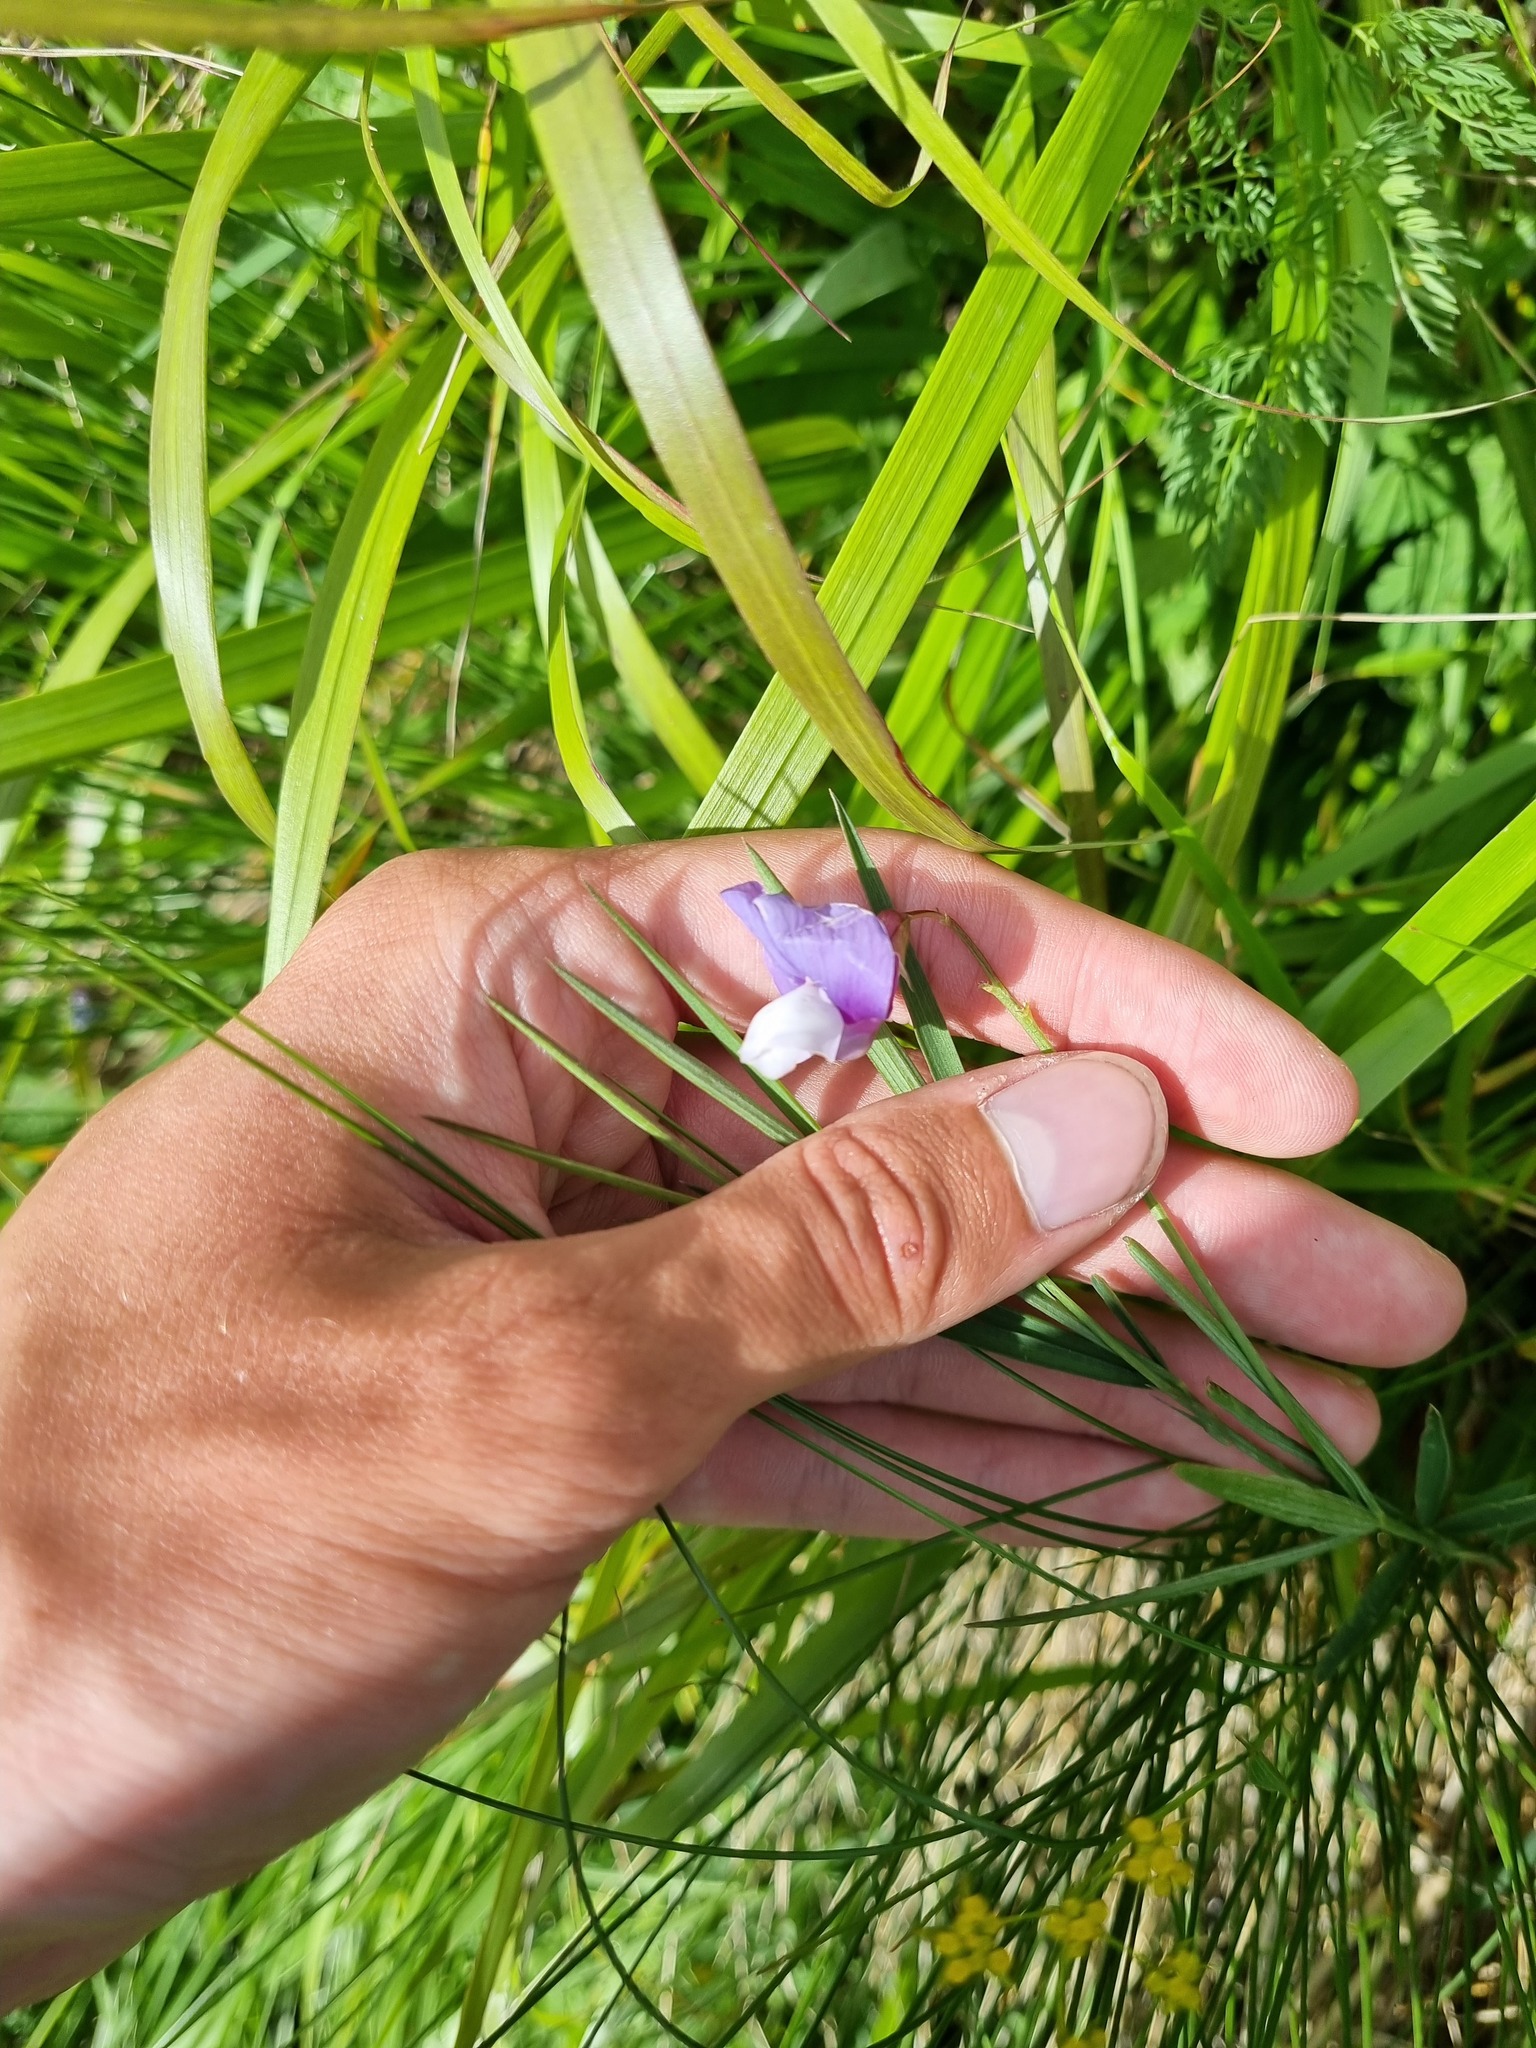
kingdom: Plantae
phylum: Tracheophyta
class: Magnoliopsida
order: Fabales
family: Fabaceae
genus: Lathyrus
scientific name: Lathyrus cyaneus
